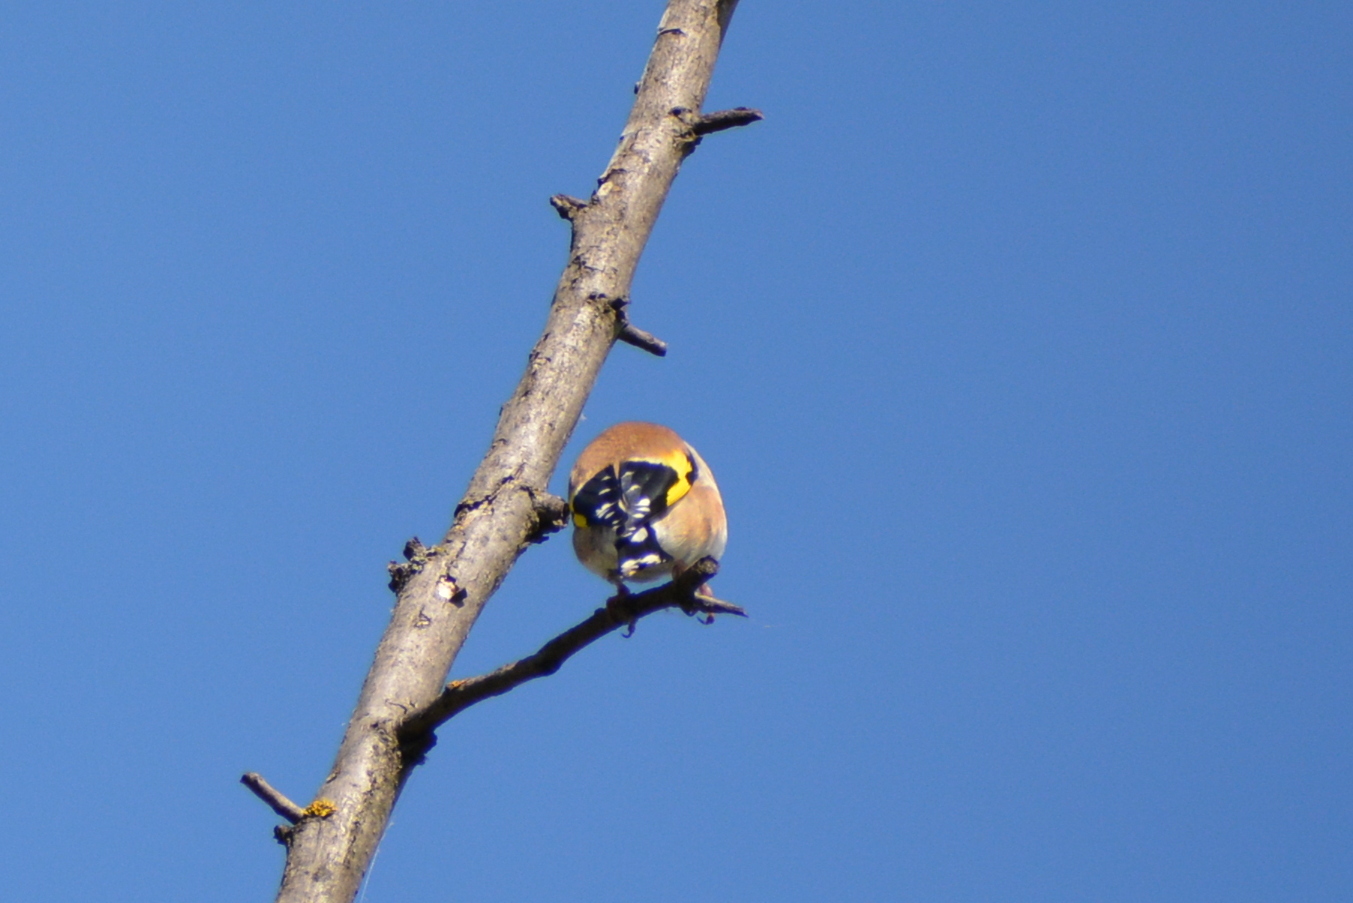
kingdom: Animalia
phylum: Chordata
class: Aves
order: Passeriformes
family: Fringillidae
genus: Carduelis
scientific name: Carduelis carduelis
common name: European goldfinch
